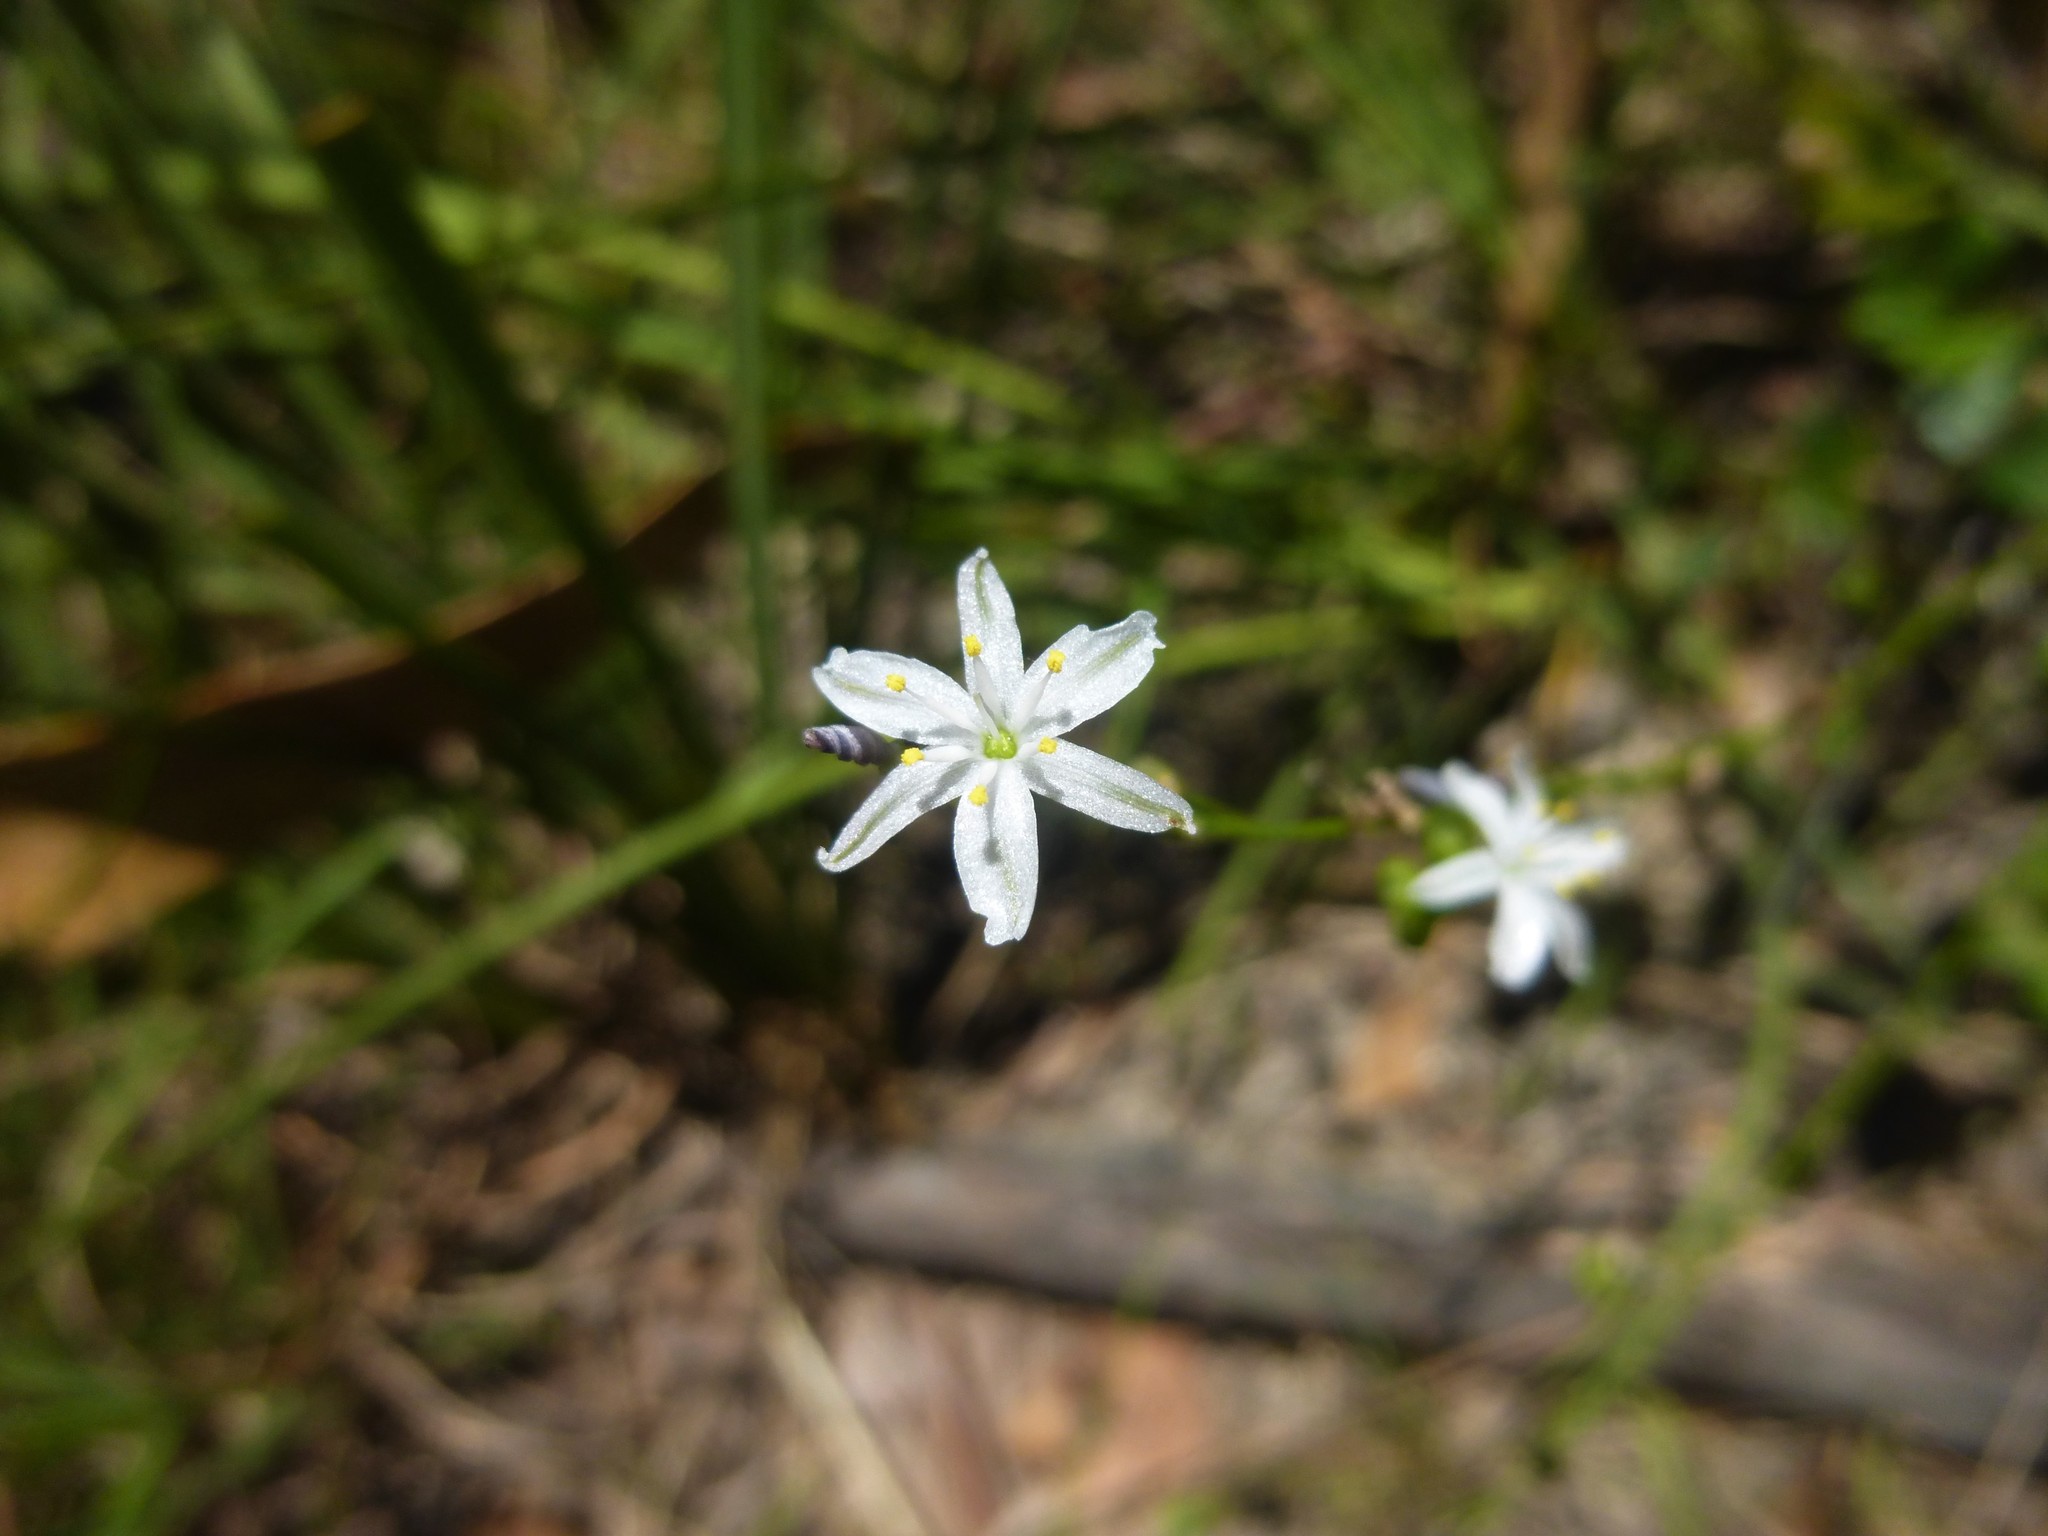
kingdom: Plantae
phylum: Tracheophyta
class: Liliopsida
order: Asparagales
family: Asphodelaceae
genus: Caesia
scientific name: Caesia parviflora
